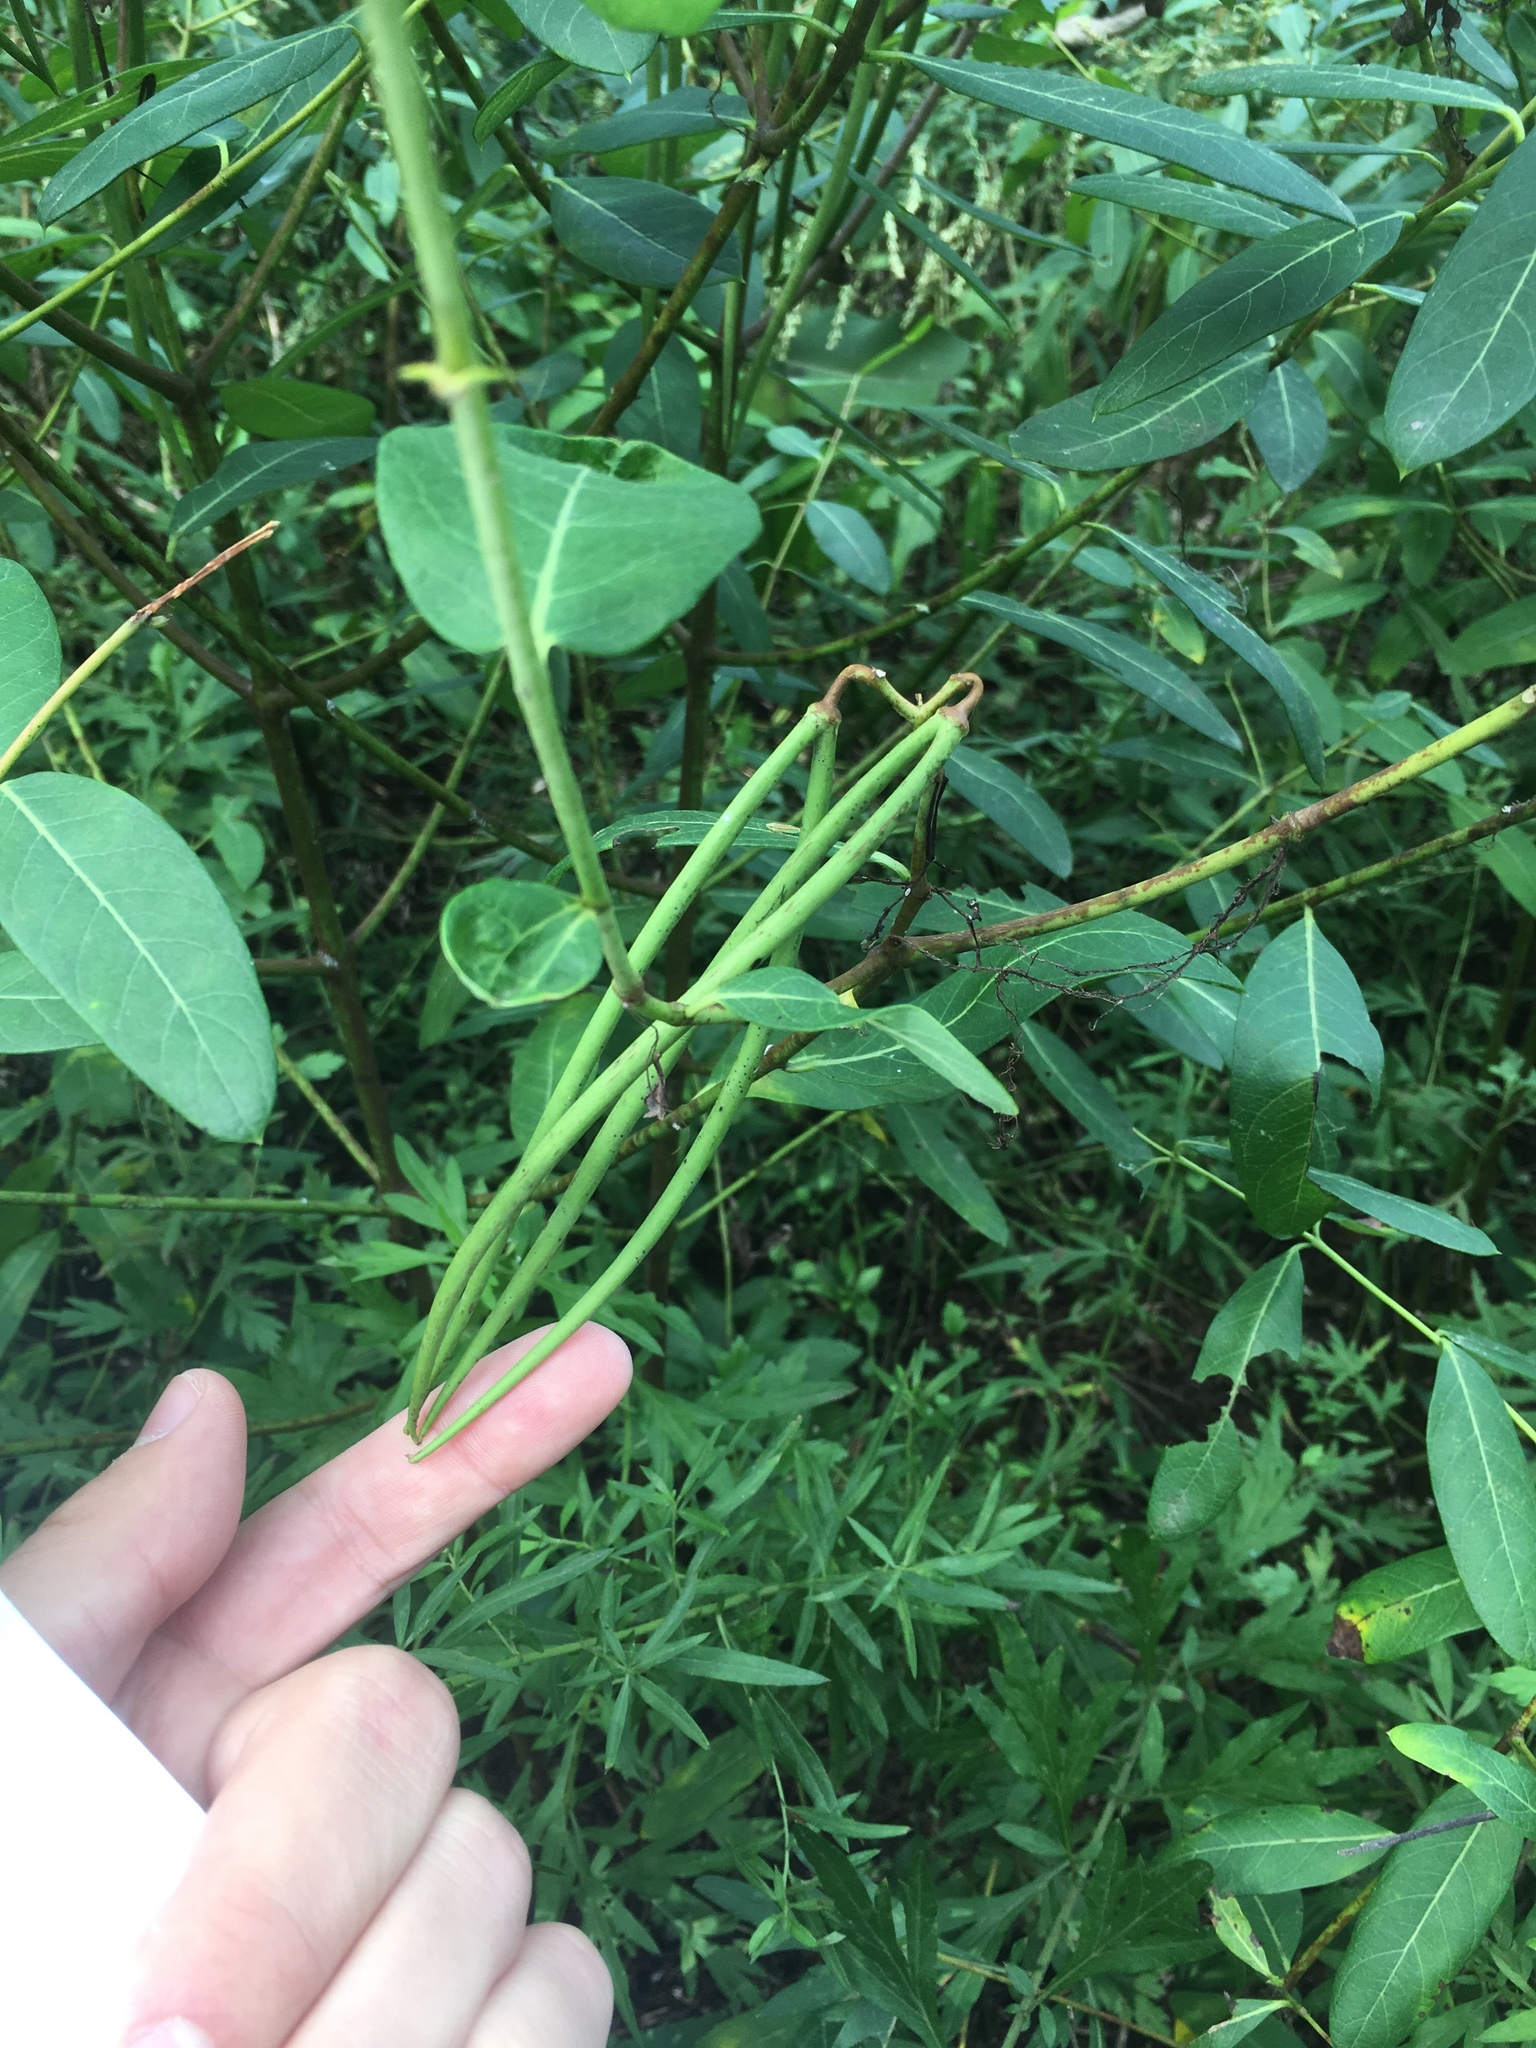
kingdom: Plantae
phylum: Tracheophyta
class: Magnoliopsida
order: Gentianales
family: Apocynaceae
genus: Apocynum
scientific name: Apocynum cannabinum
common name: Hemp dogbane
